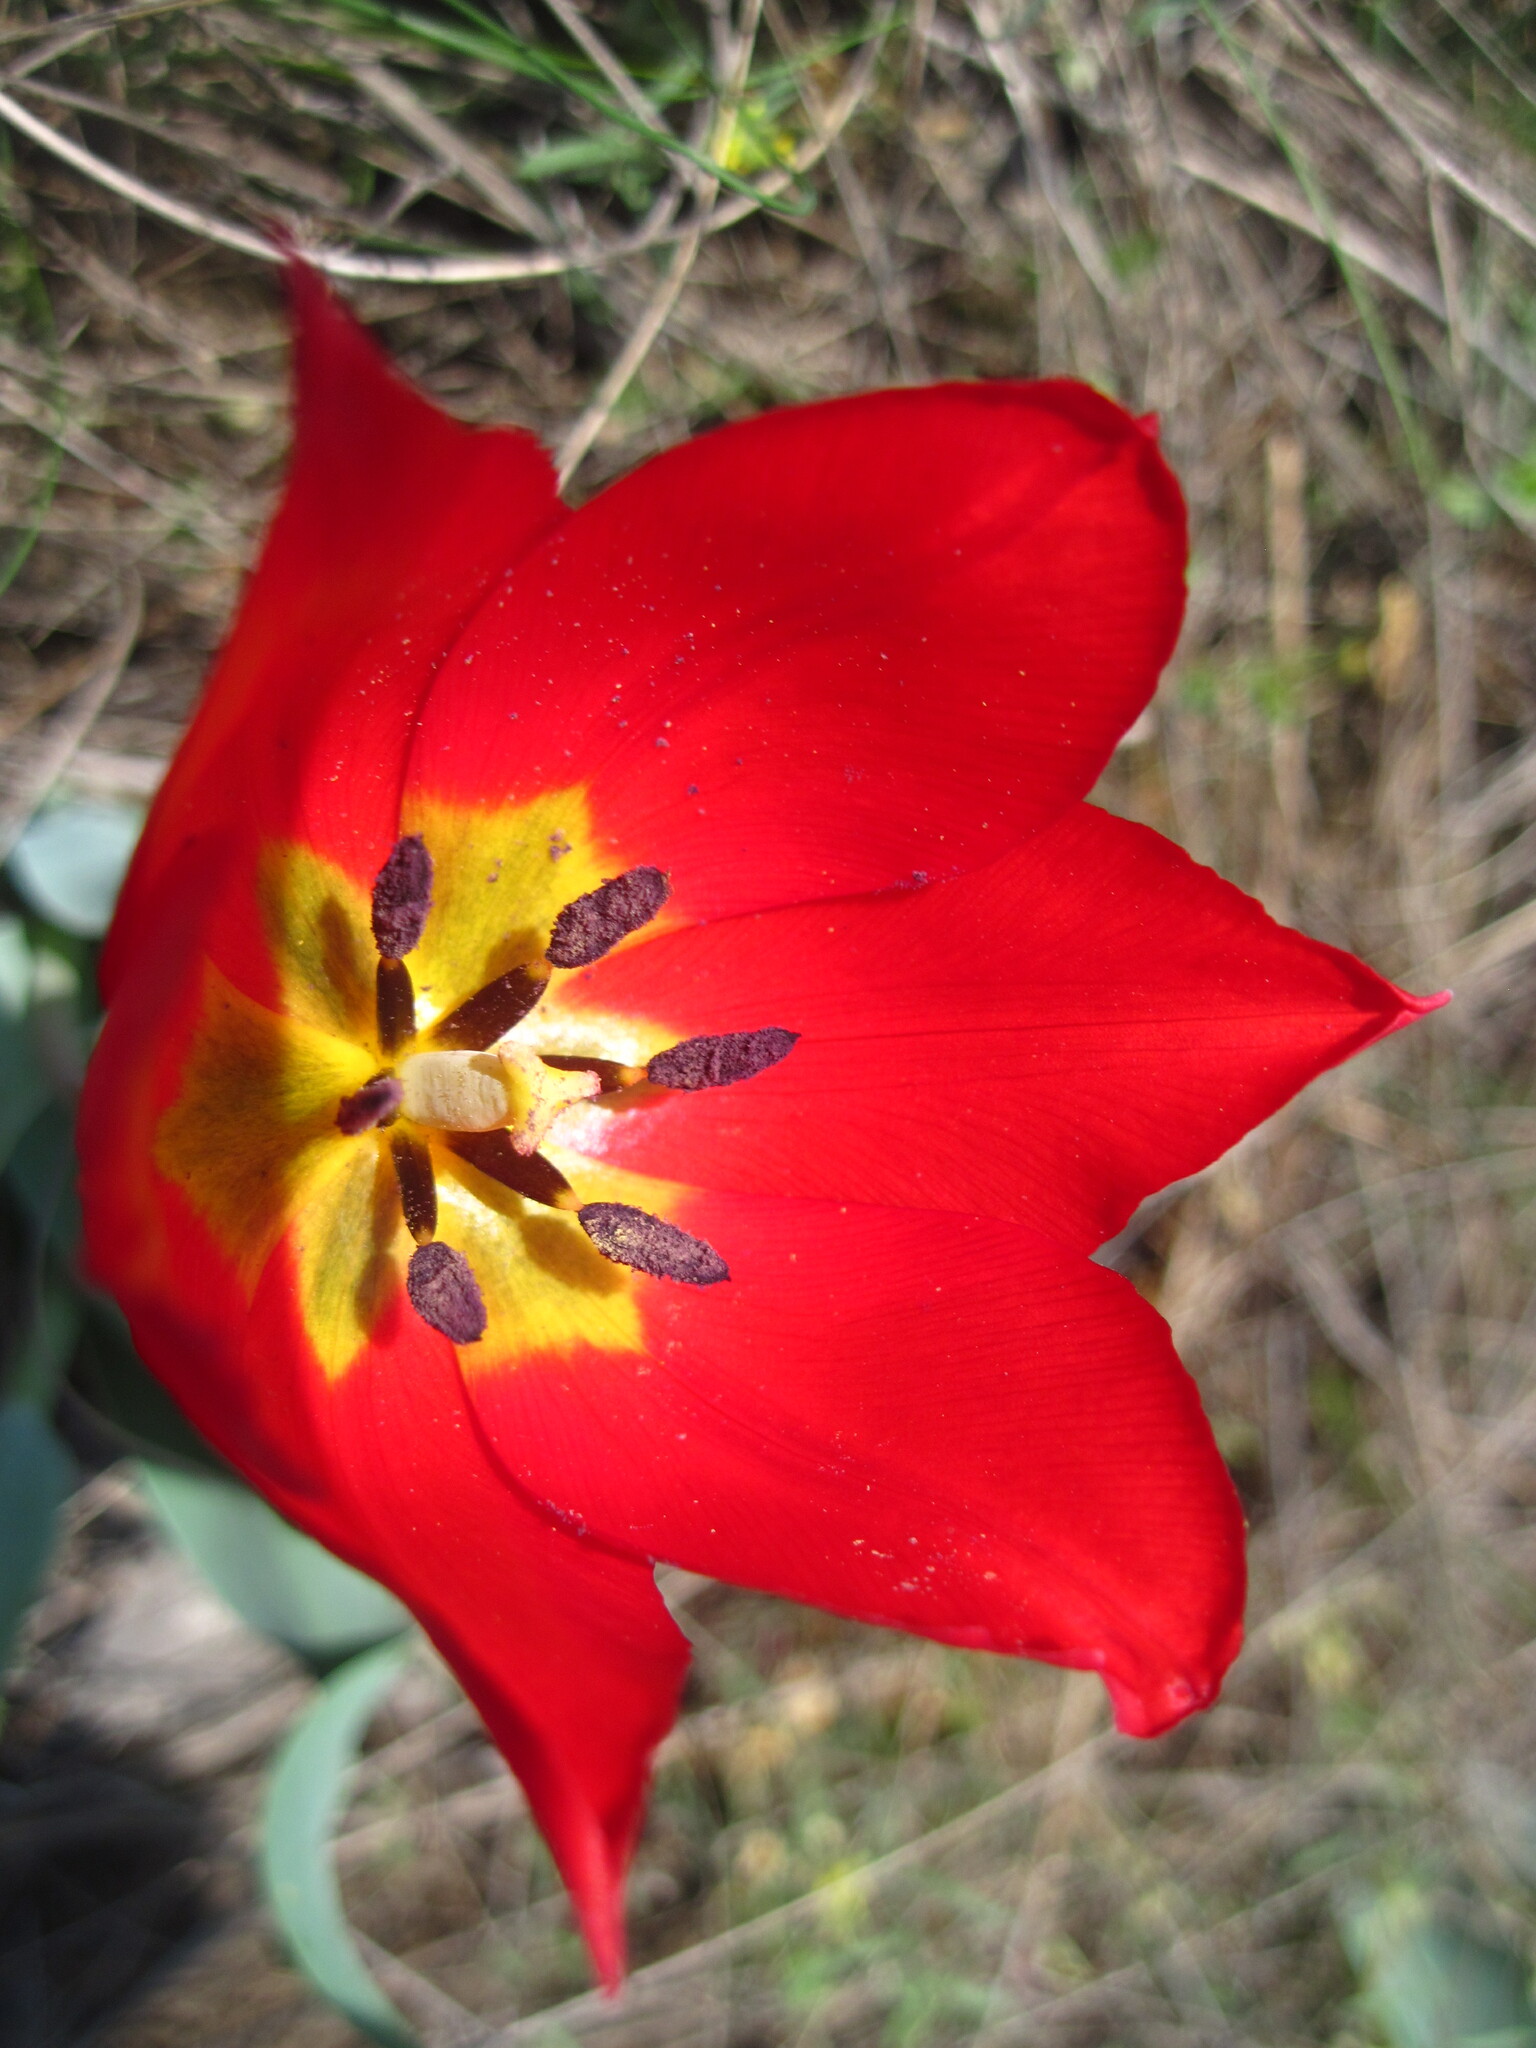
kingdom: Plantae
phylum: Tracheophyta
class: Liliopsida
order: Liliales
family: Liliaceae
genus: Tulipa
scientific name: Tulipa suaveolens
